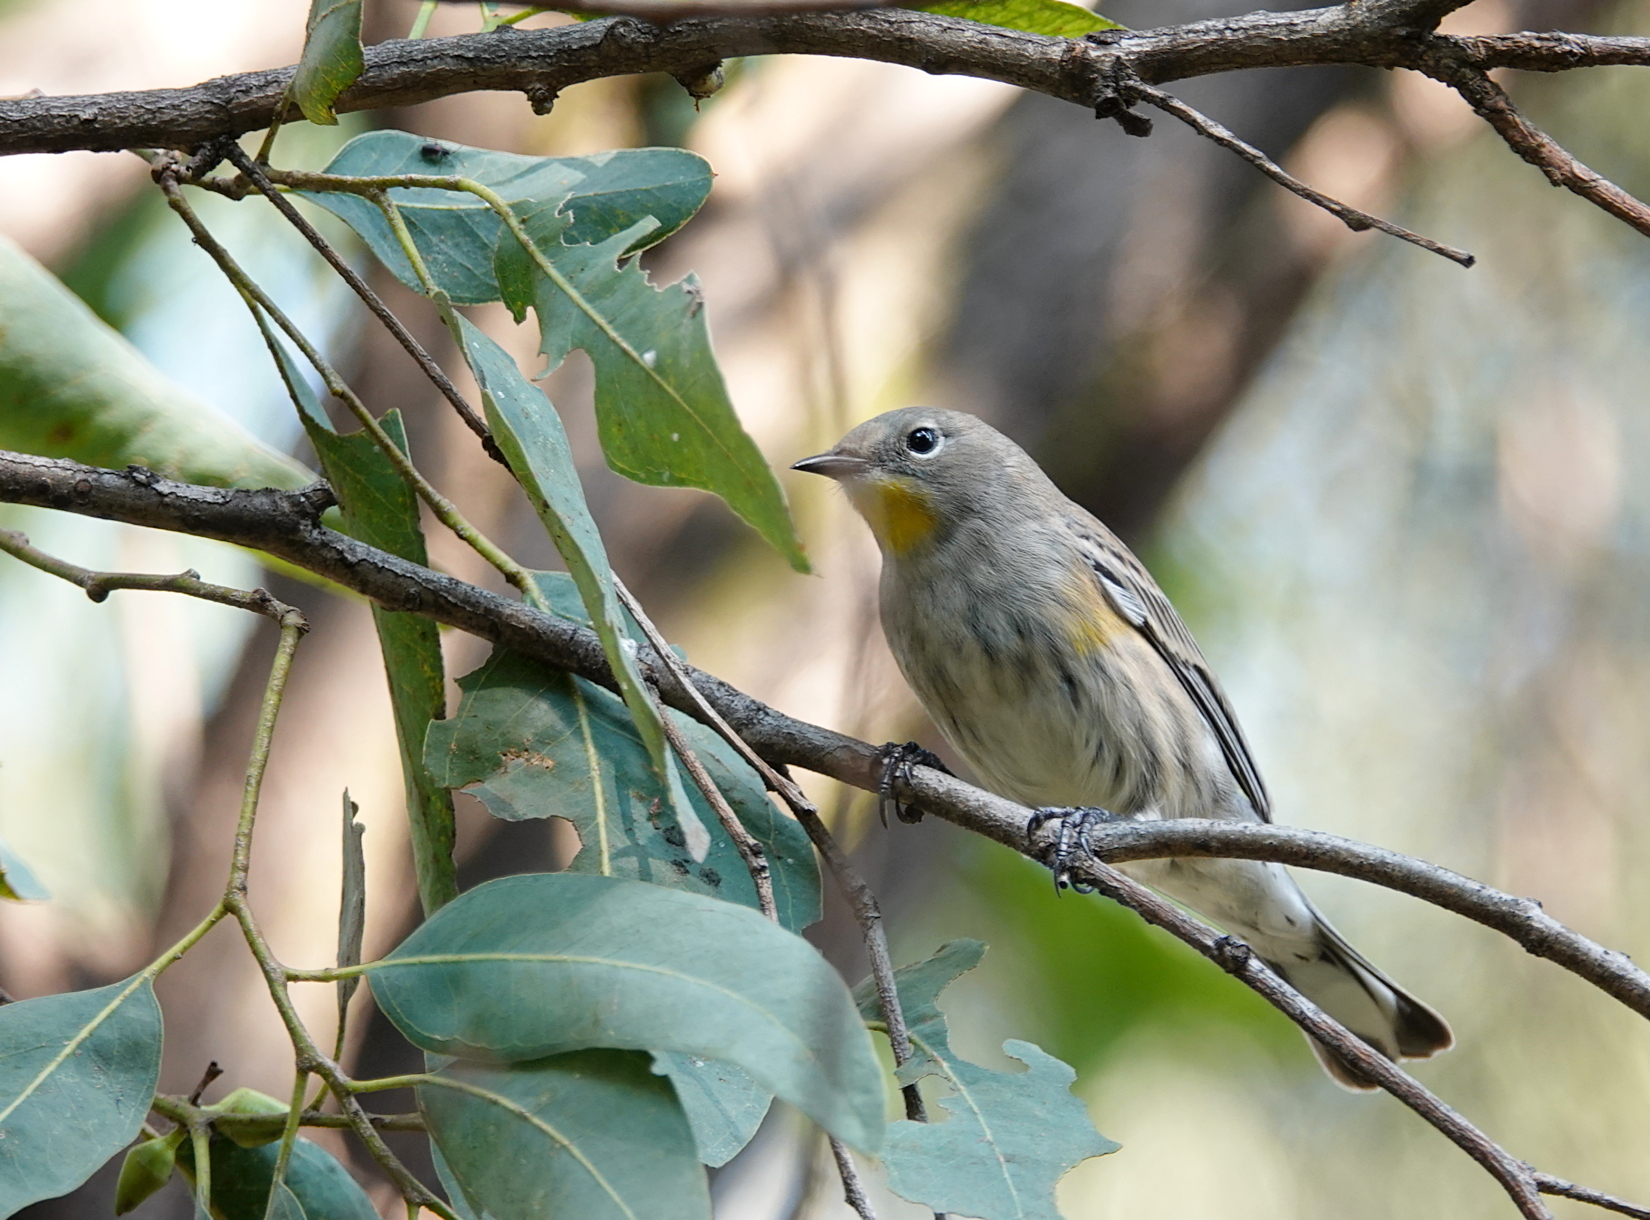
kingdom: Animalia
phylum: Chordata
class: Aves
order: Passeriformes
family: Parulidae
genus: Setophaga
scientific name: Setophaga auduboni
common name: Audubon's warbler
